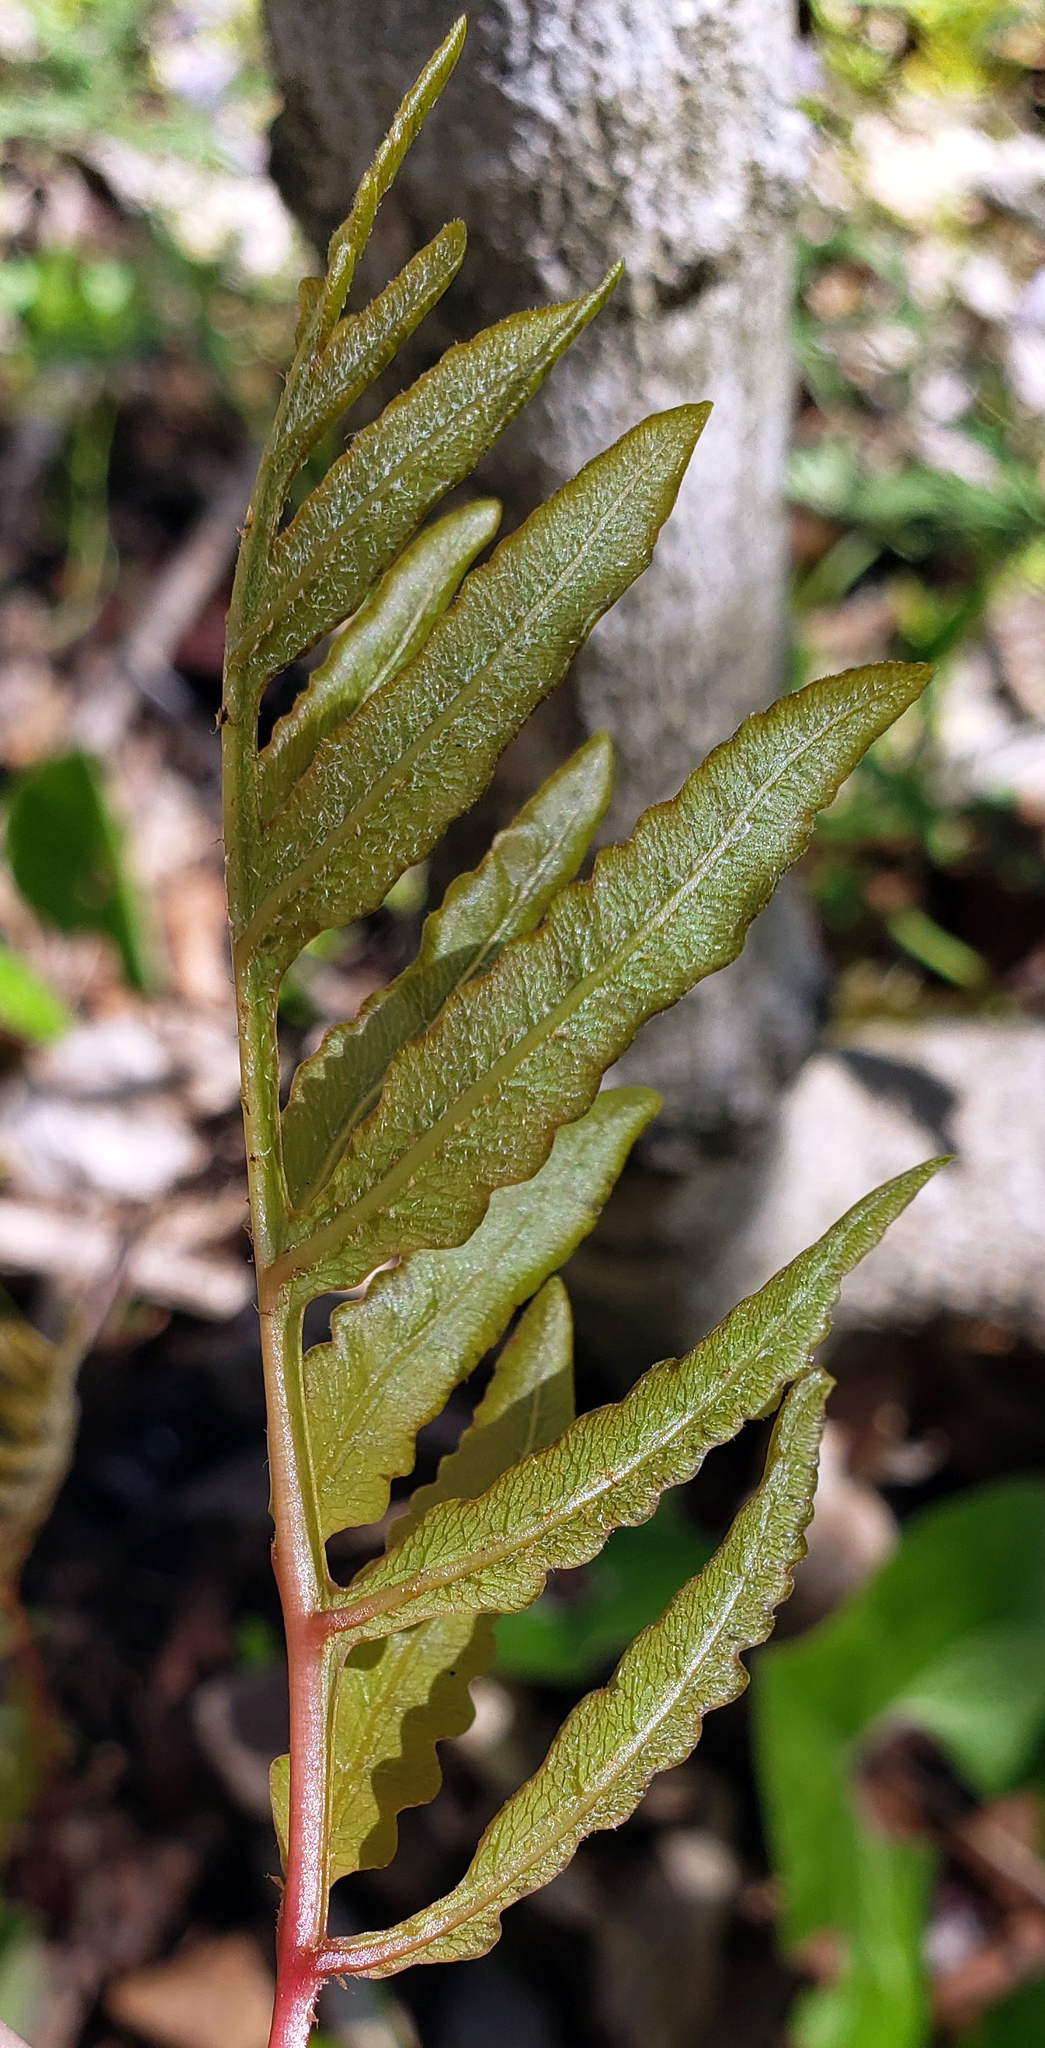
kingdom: Plantae
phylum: Tracheophyta
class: Polypodiopsida
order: Polypodiales
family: Onocleaceae
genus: Onoclea
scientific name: Onoclea sensibilis
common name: Sensitive fern
